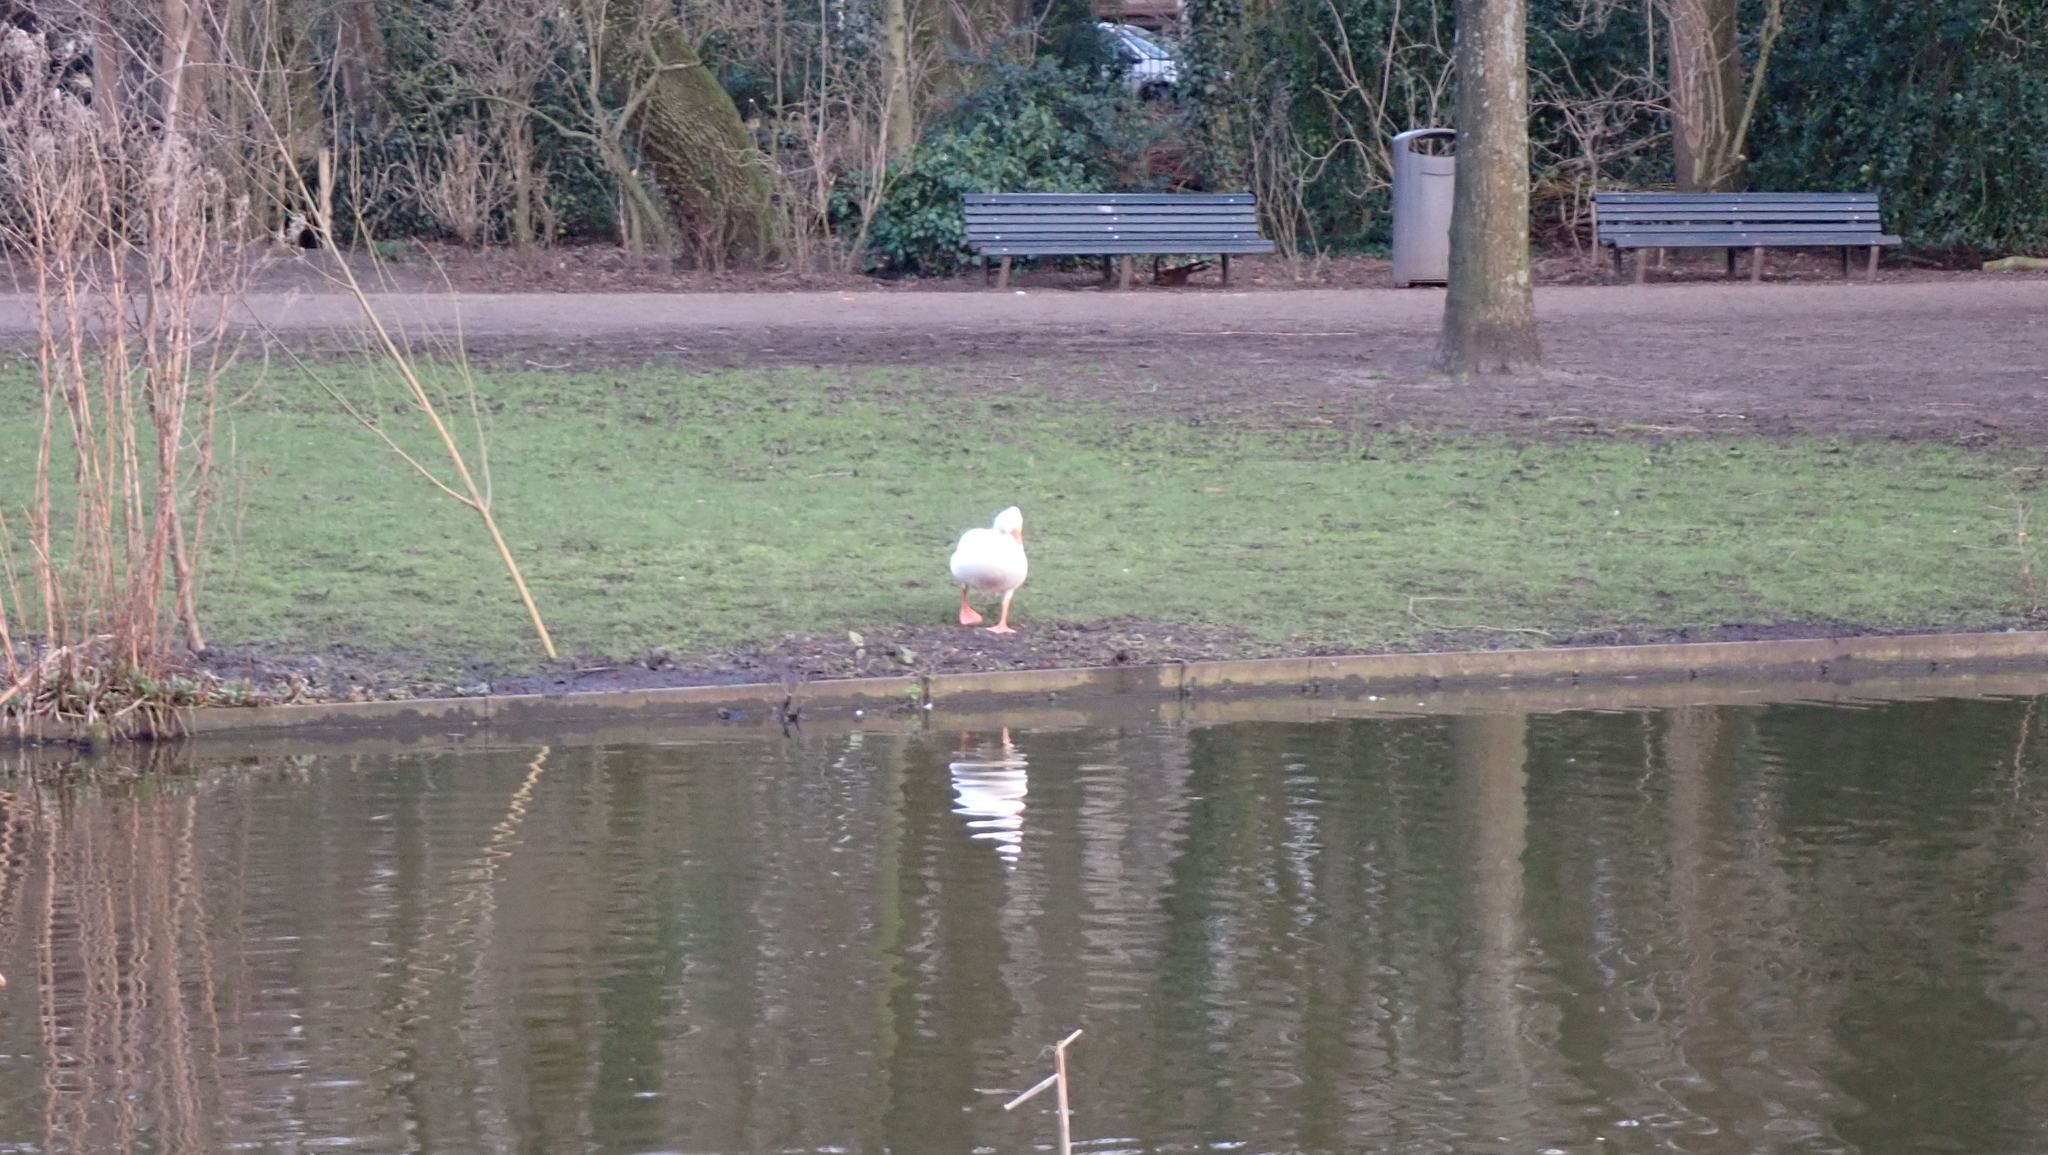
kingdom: Animalia
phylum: Chordata
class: Aves
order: Anseriformes
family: Anatidae
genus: Anser
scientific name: Anser anser
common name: Greylag goose
